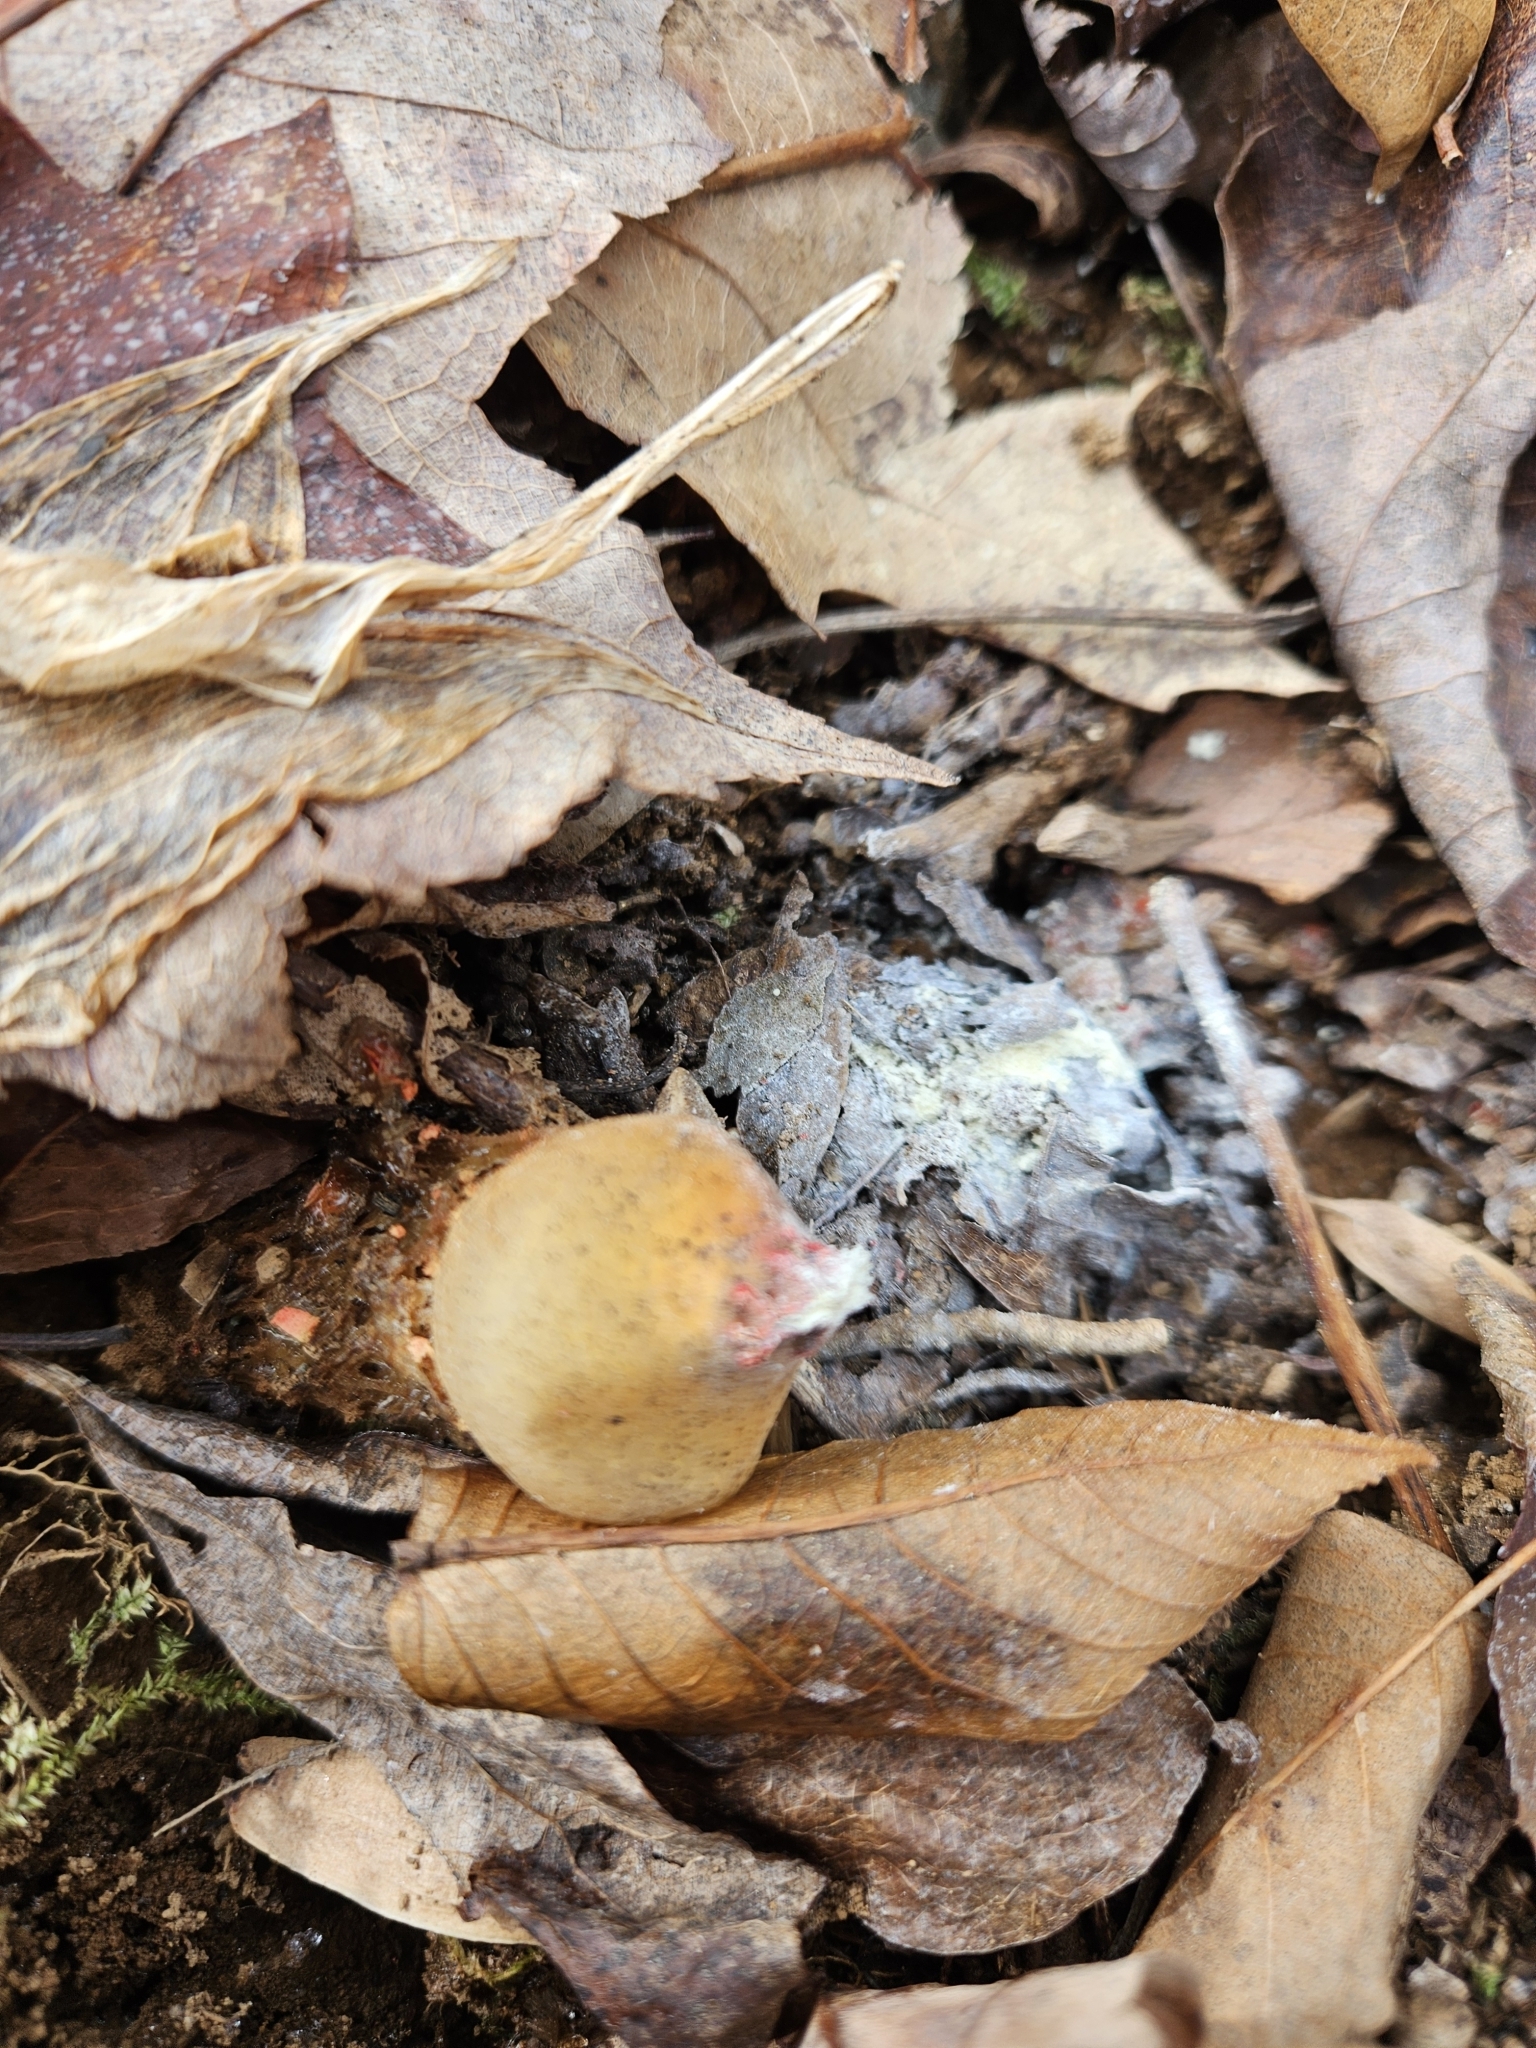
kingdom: Fungi
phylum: Basidiomycota
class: Agaricomycetes
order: Boletales
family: Calostomataceae
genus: Calostoma
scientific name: Calostoma cinnabarinum
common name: Stalked puffball-in-aspic
